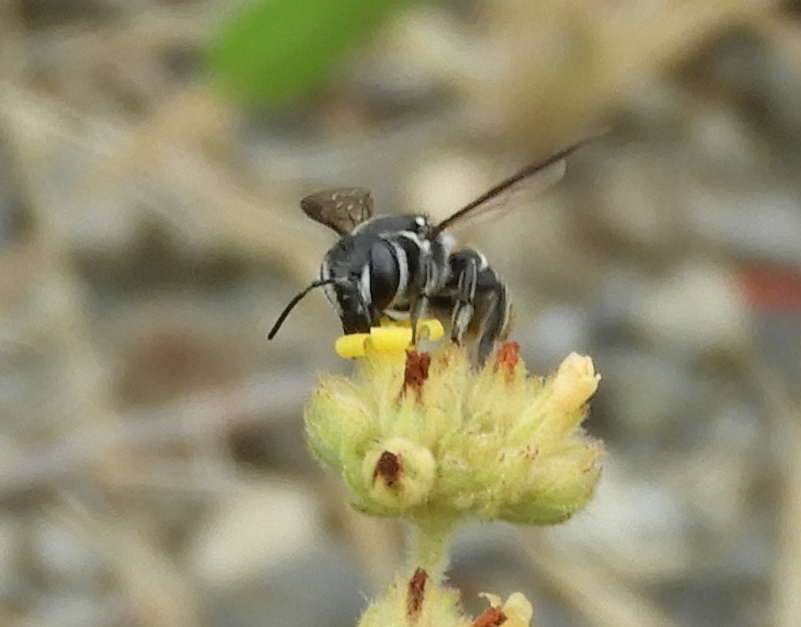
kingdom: Animalia
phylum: Arthropoda
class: Insecta
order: Hymenoptera
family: Megachilidae
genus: Megachile
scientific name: Megachile
